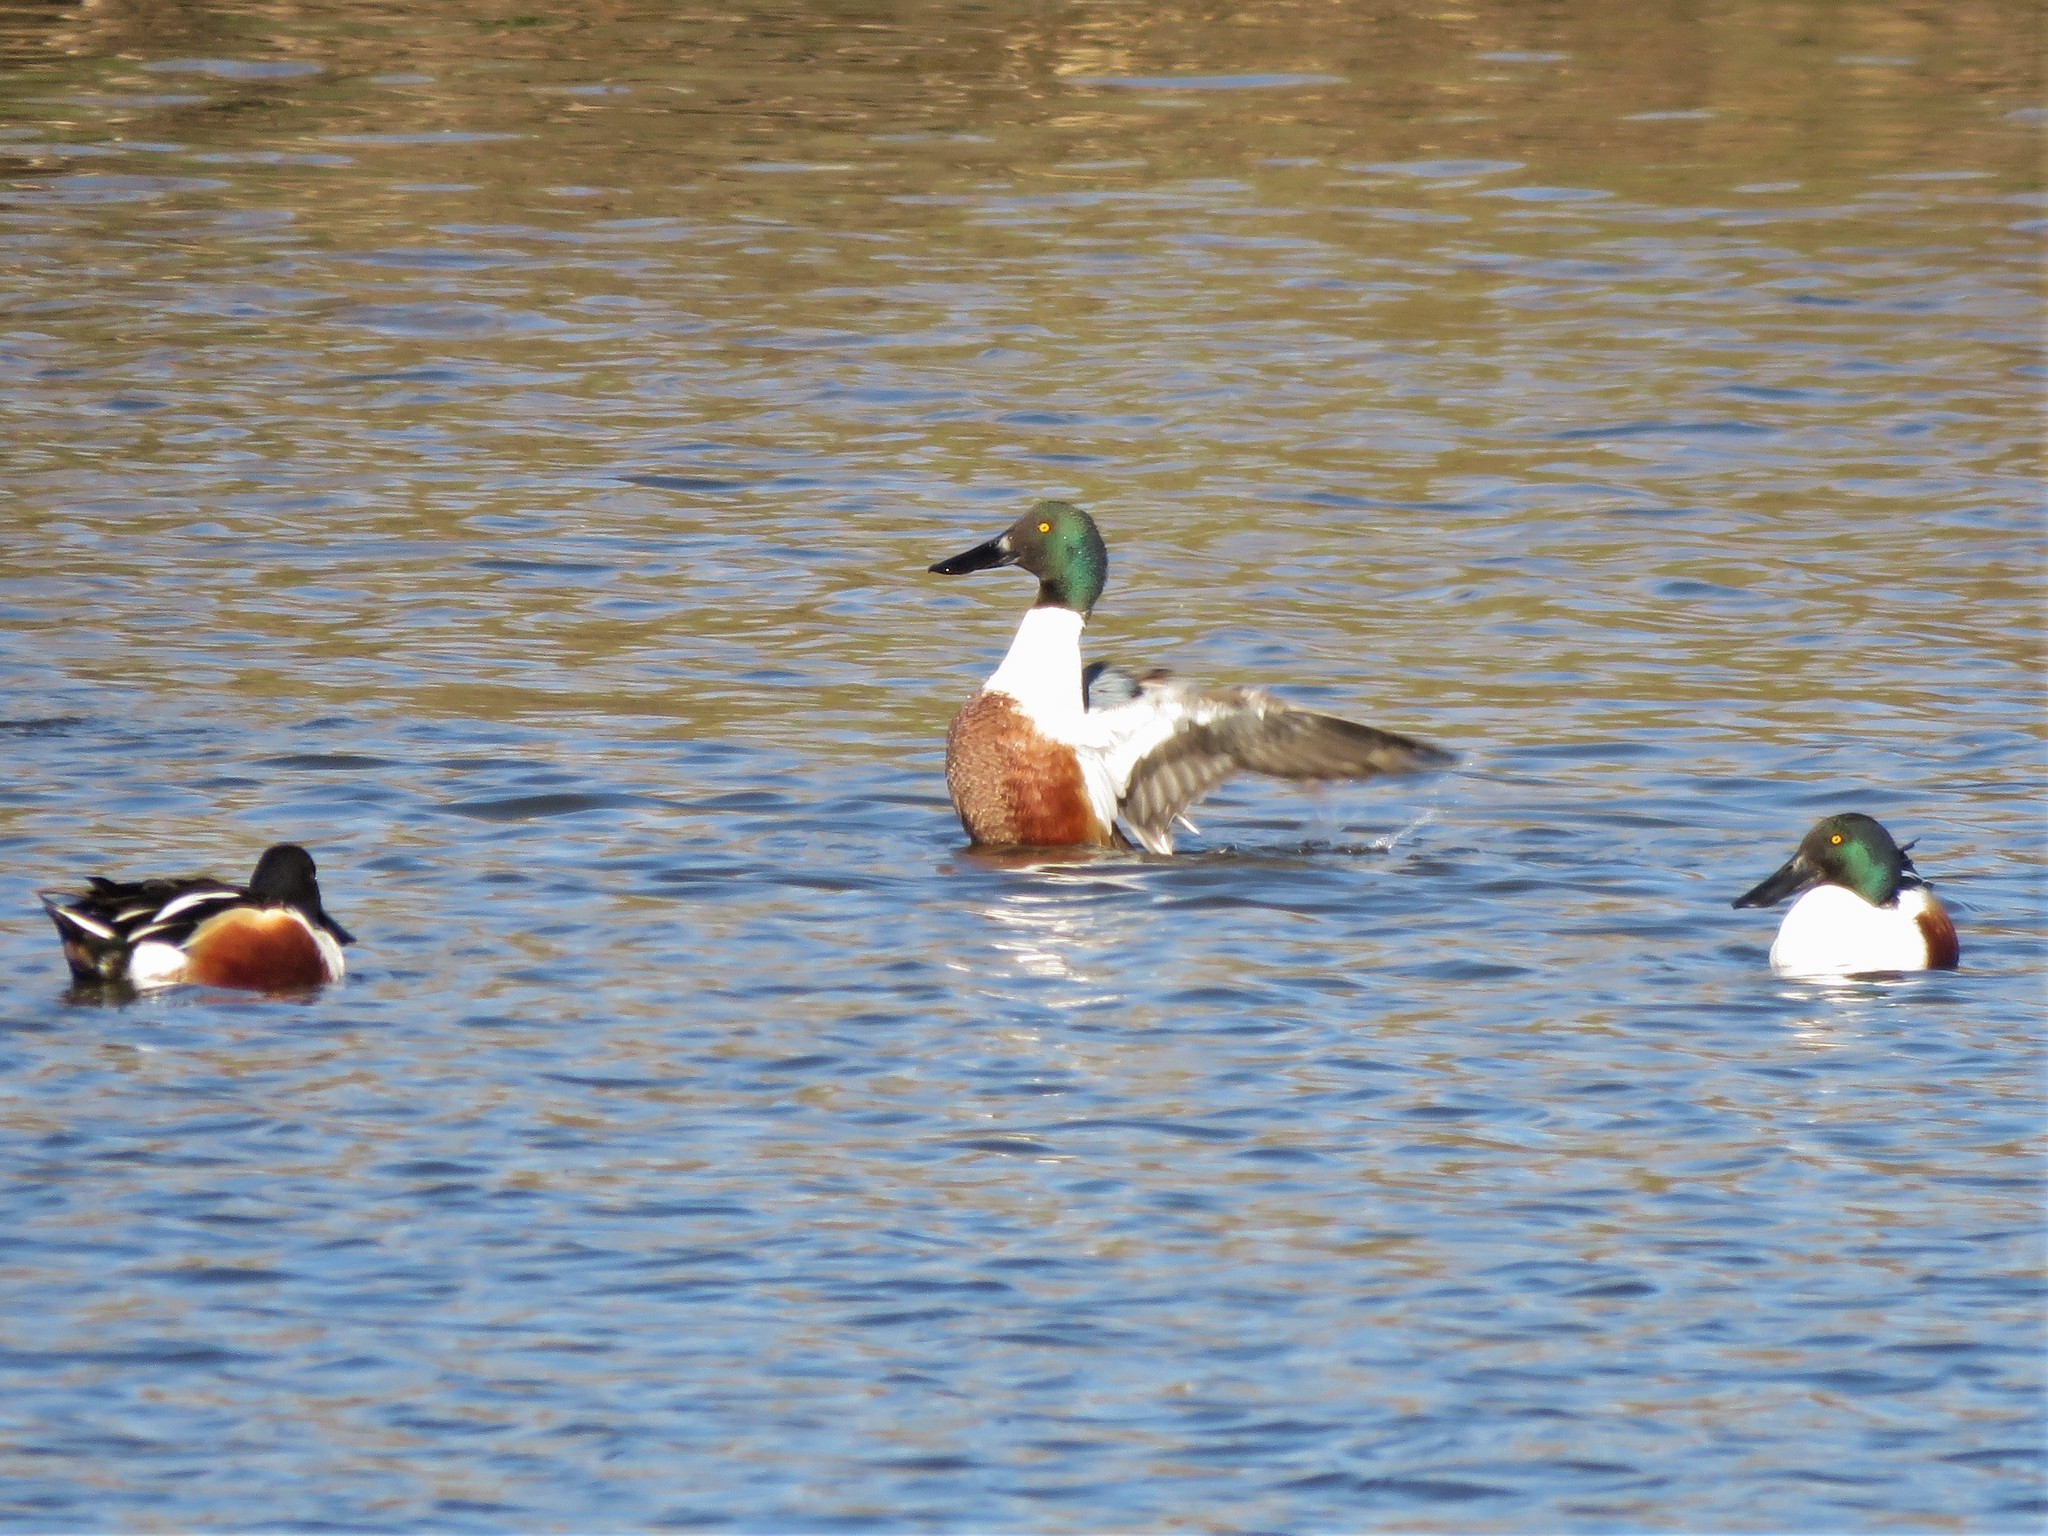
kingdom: Animalia
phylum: Chordata
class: Aves
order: Anseriformes
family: Anatidae
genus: Spatula
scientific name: Spatula clypeata
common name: Northern shoveler
